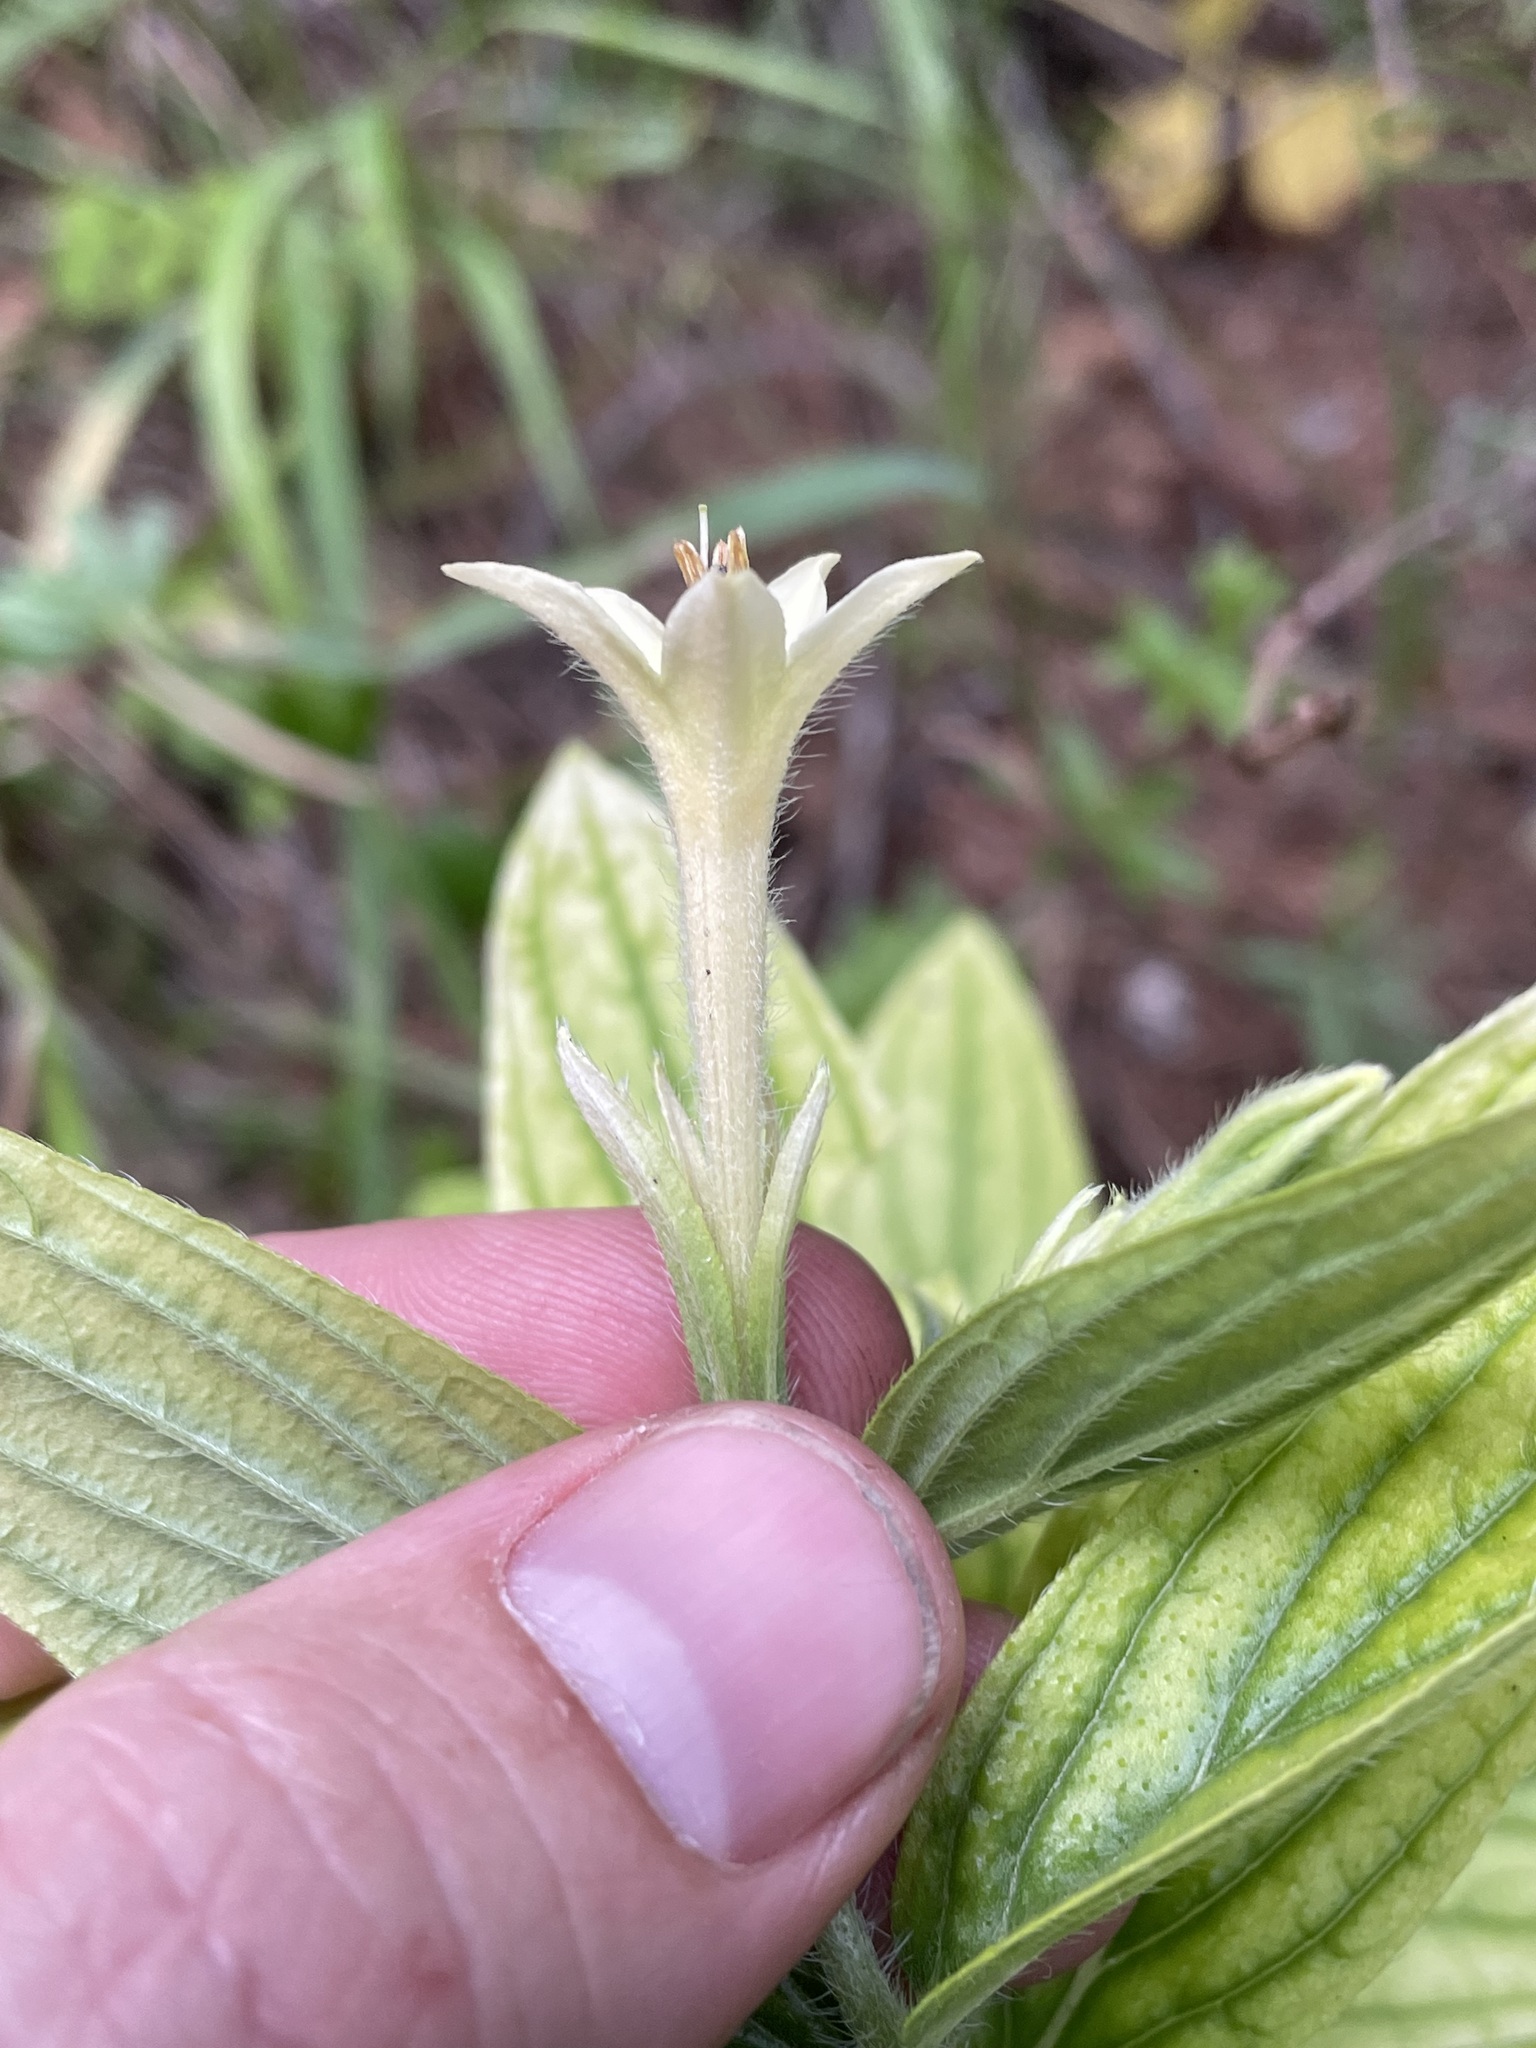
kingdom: Plantae
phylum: Tracheophyta
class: Magnoliopsida
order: Boraginales
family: Boraginaceae
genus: Lithospermum
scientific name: Lithospermum thurberi
